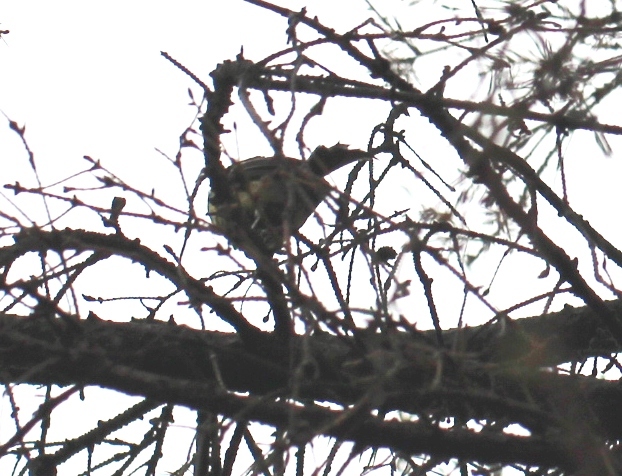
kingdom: Animalia
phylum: Chordata
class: Aves
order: Passeriformes
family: Paridae
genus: Parus
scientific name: Parus major
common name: Great tit
